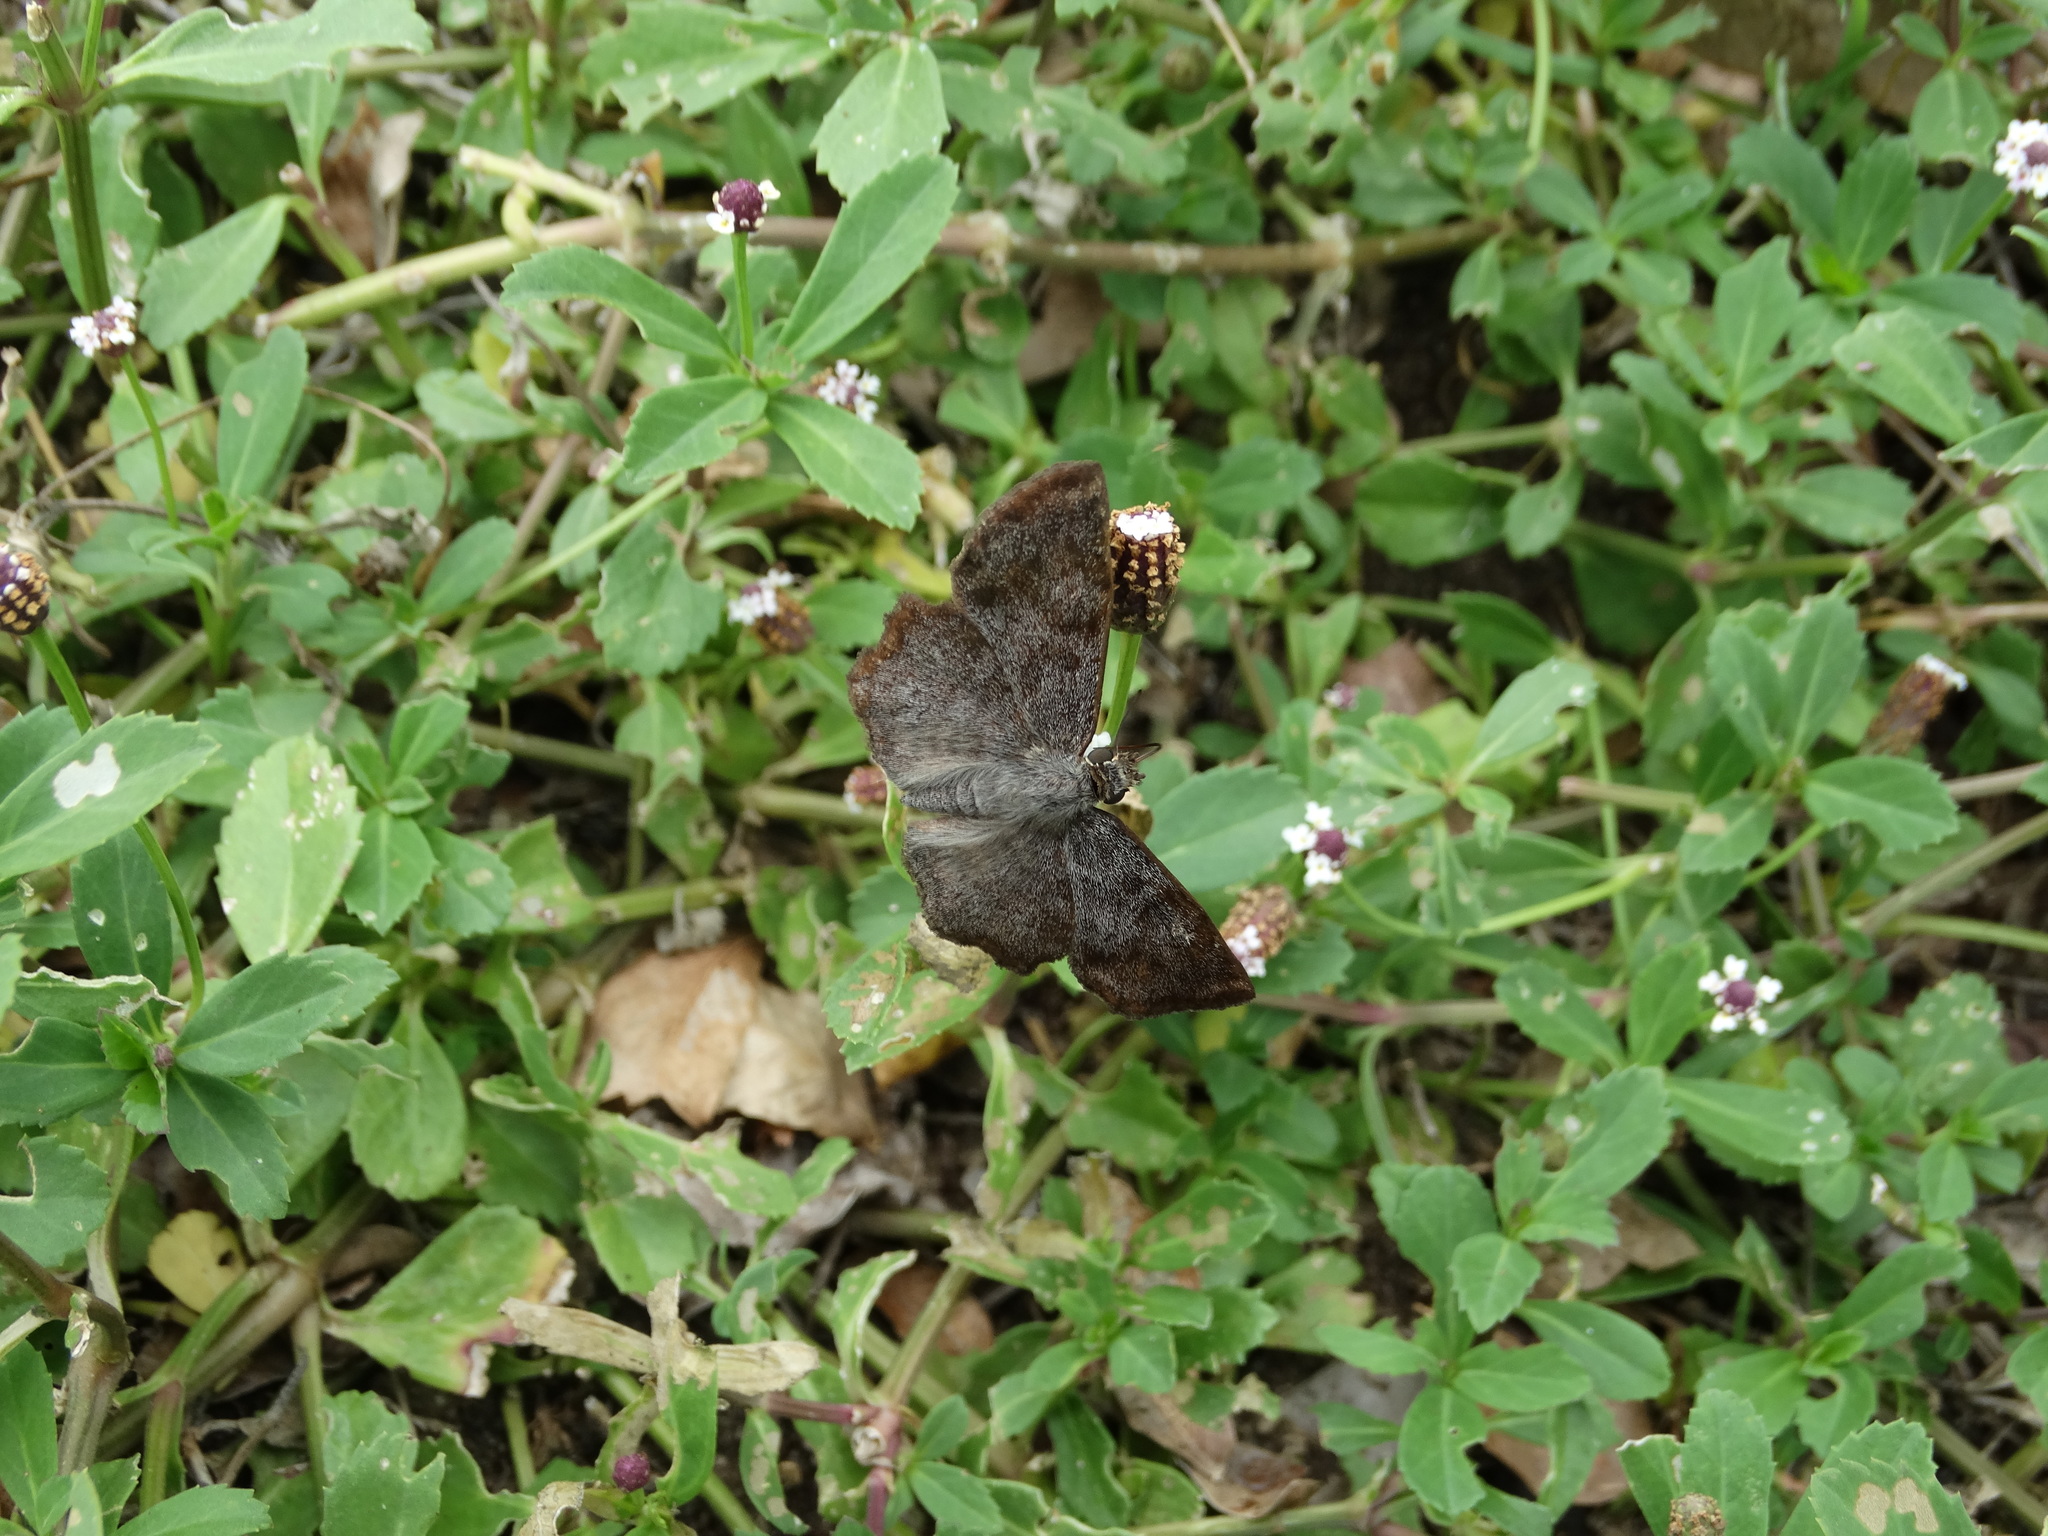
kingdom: Animalia
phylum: Arthropoda
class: Insecta
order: Lepidoptera
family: Hesperiidae
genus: Antigonus
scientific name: Antigonus erosus
